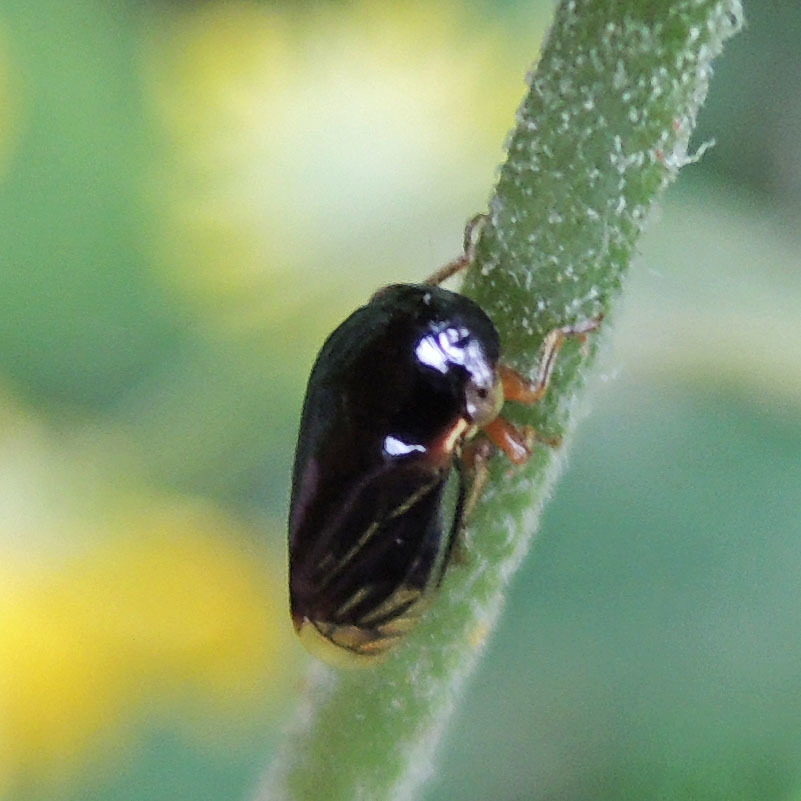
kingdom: Animalia
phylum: Arthropoda
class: Insecta
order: Hemiptera
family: Membracidae
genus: Acutalis
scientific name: Acutalis tartarea
